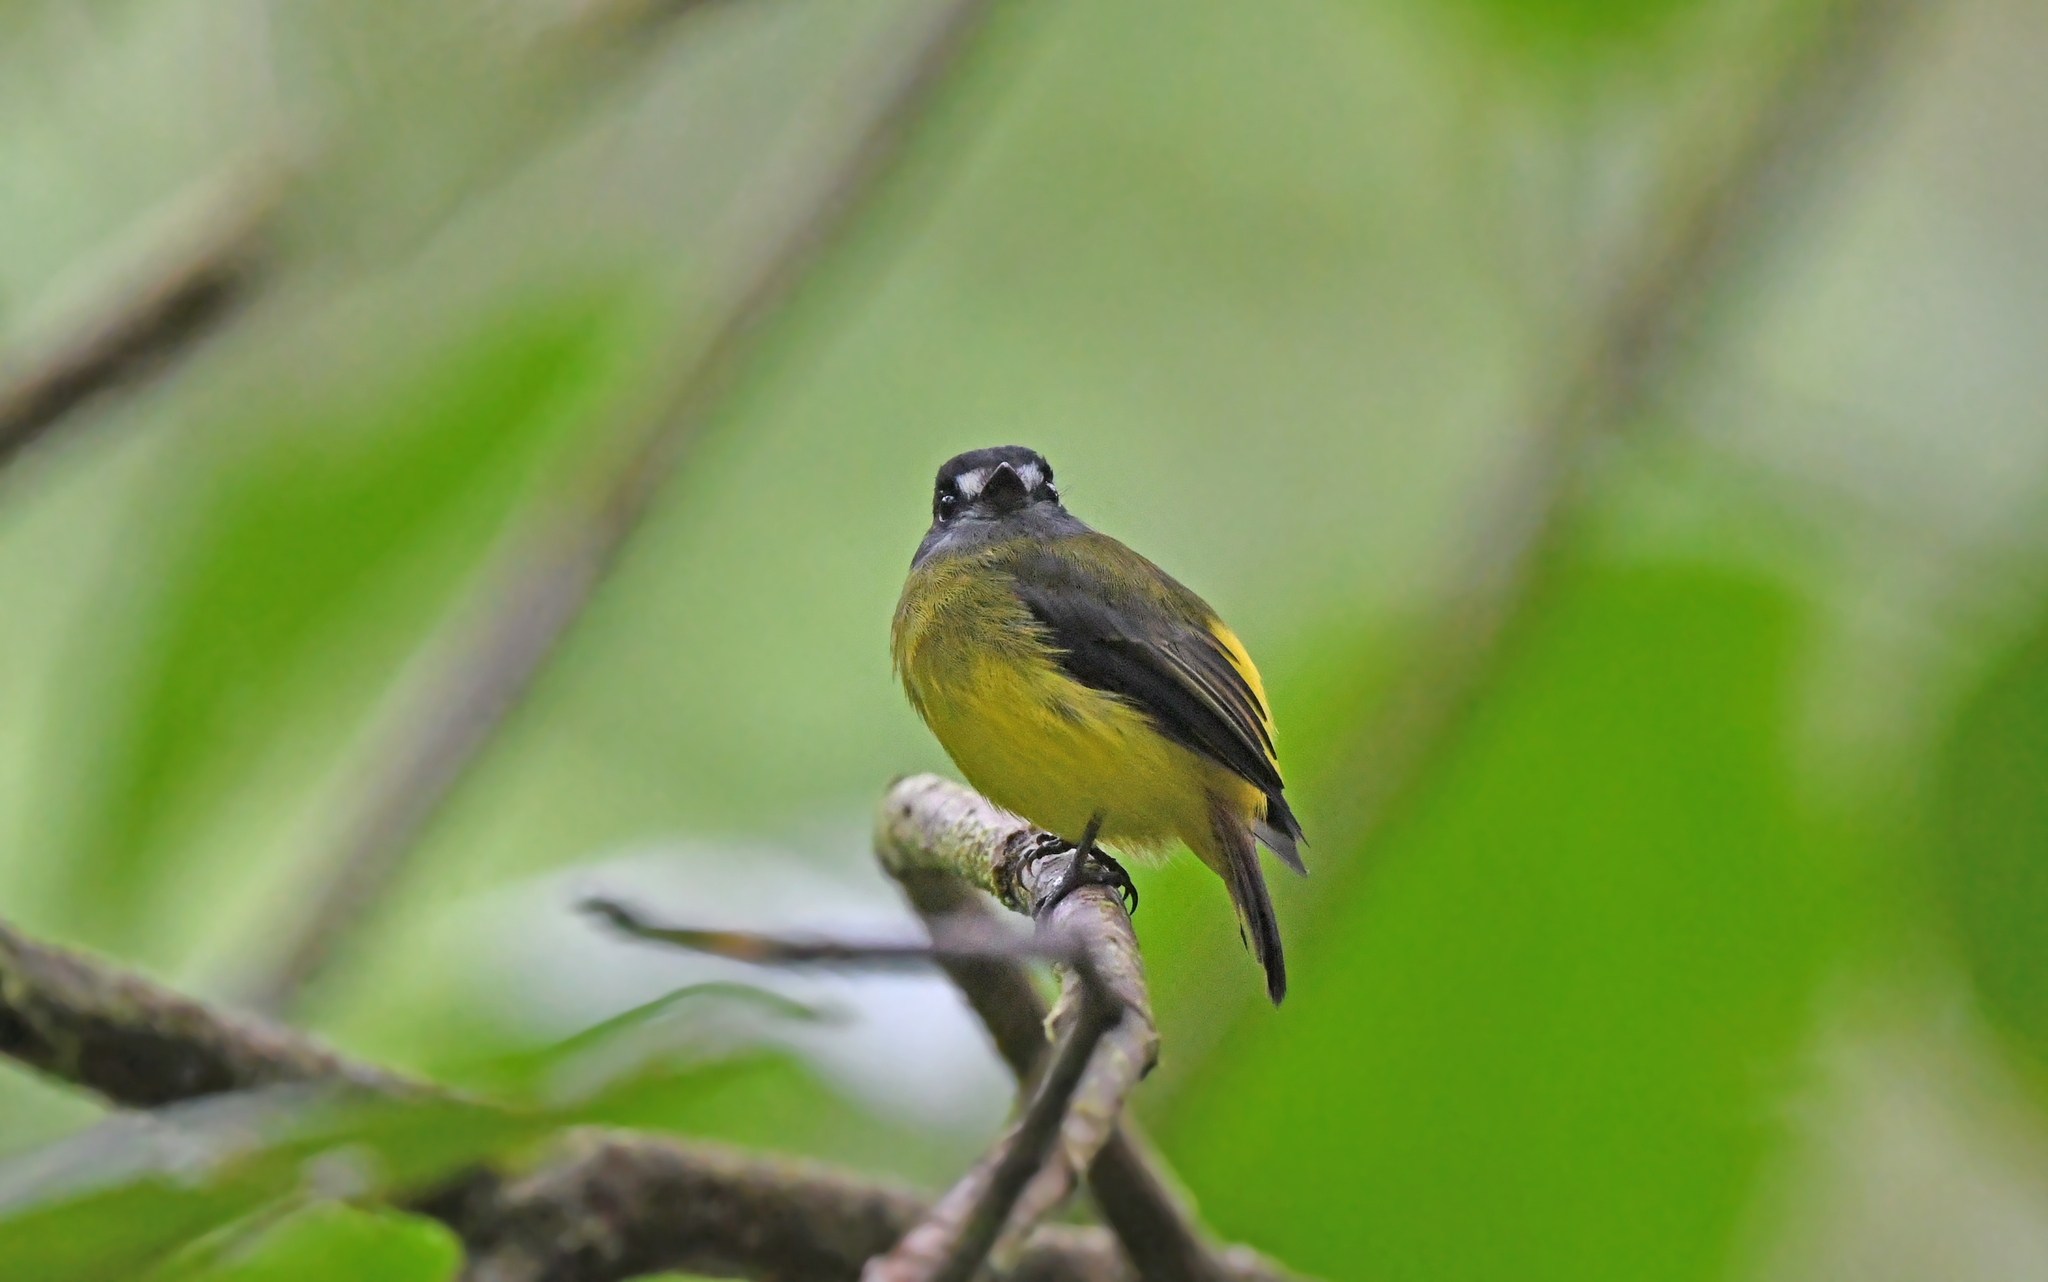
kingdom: Animalia
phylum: Chordata
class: Aves
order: Passeriformes
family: Tyrannidae
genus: Myiotriccus
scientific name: Myiotriccus ornatus
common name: Ornate flycatcher
